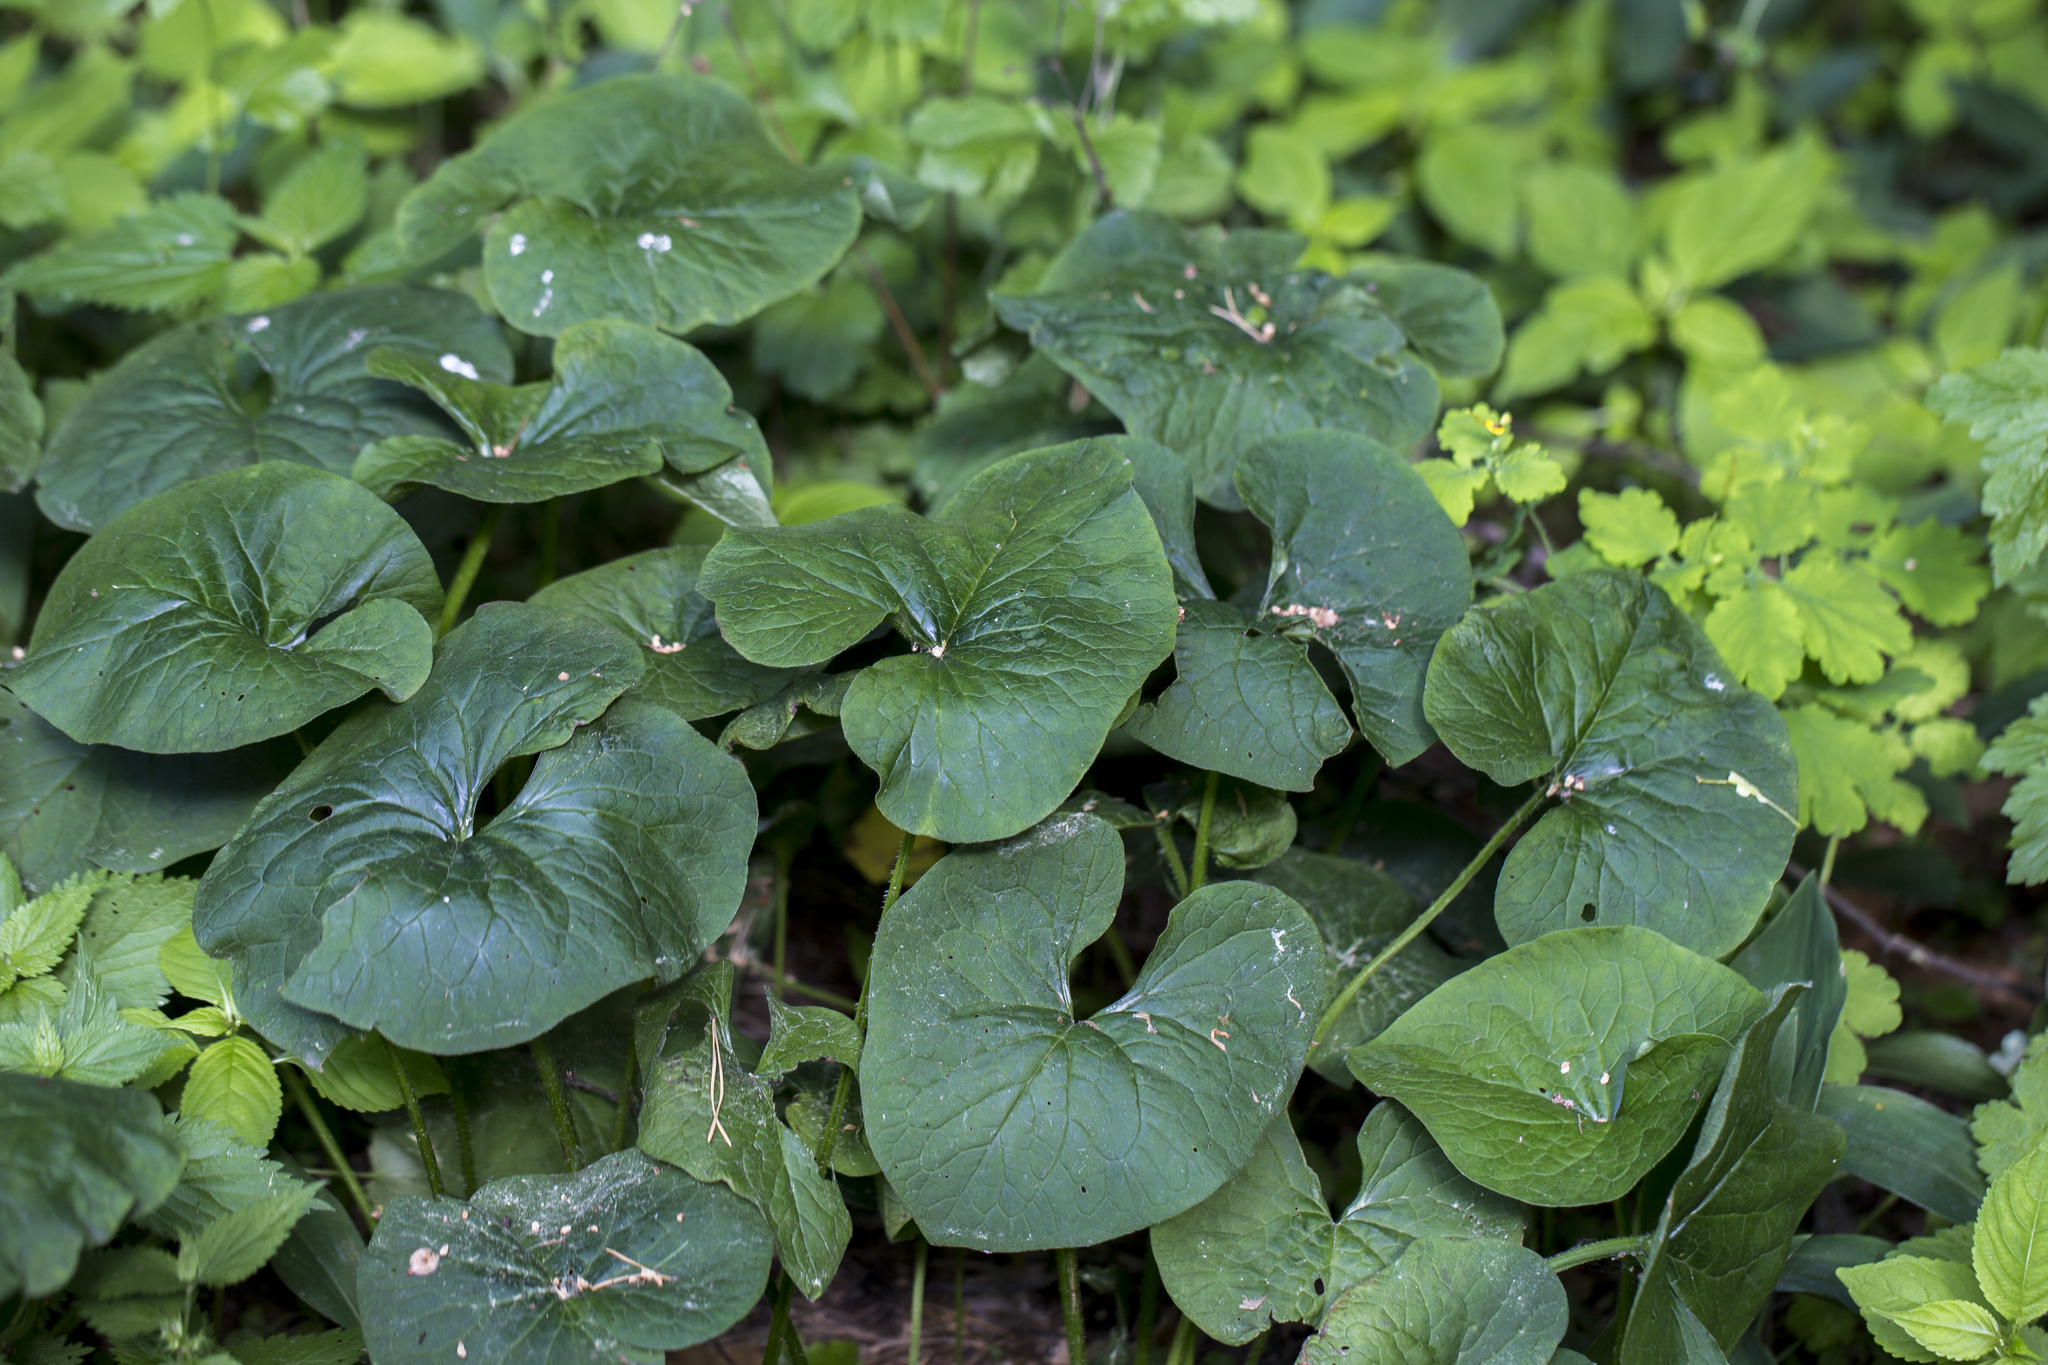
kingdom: Plantae
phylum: Tracheophyta
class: Magnoliopsida
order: Boraginales
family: Boraginaceae
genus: Brunnera
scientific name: Brunnera sibirica
